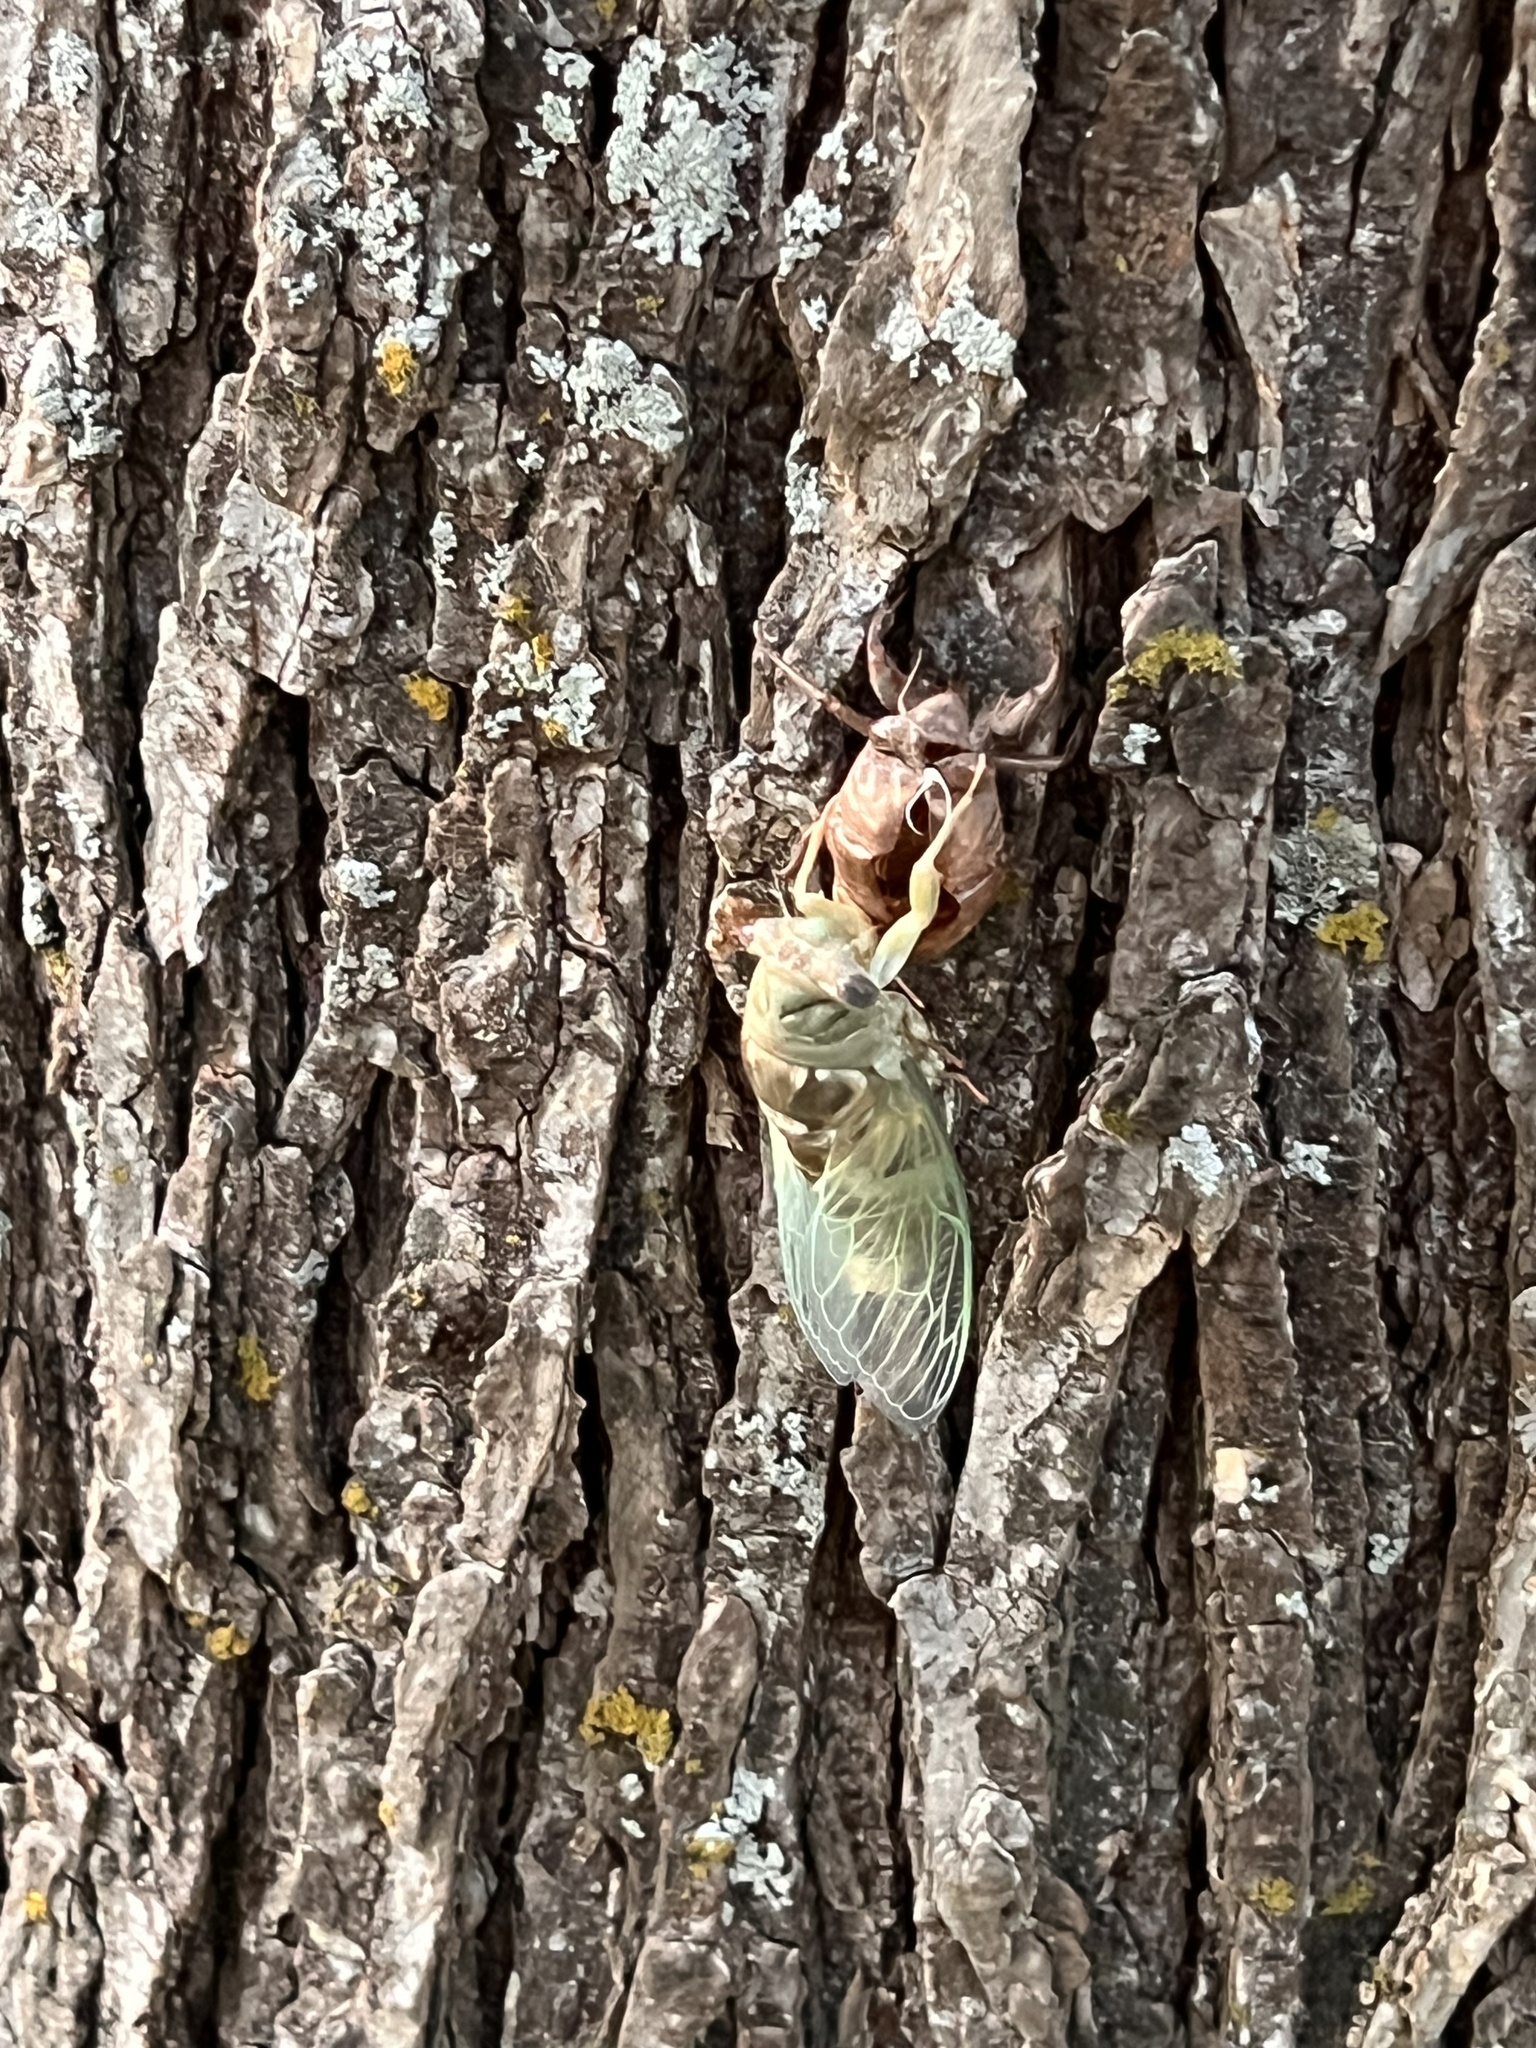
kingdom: Animalia
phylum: Arthropoda
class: Insecta
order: Hemiptera
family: Cicadidae
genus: Megatibicen
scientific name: Megatibicen resh
